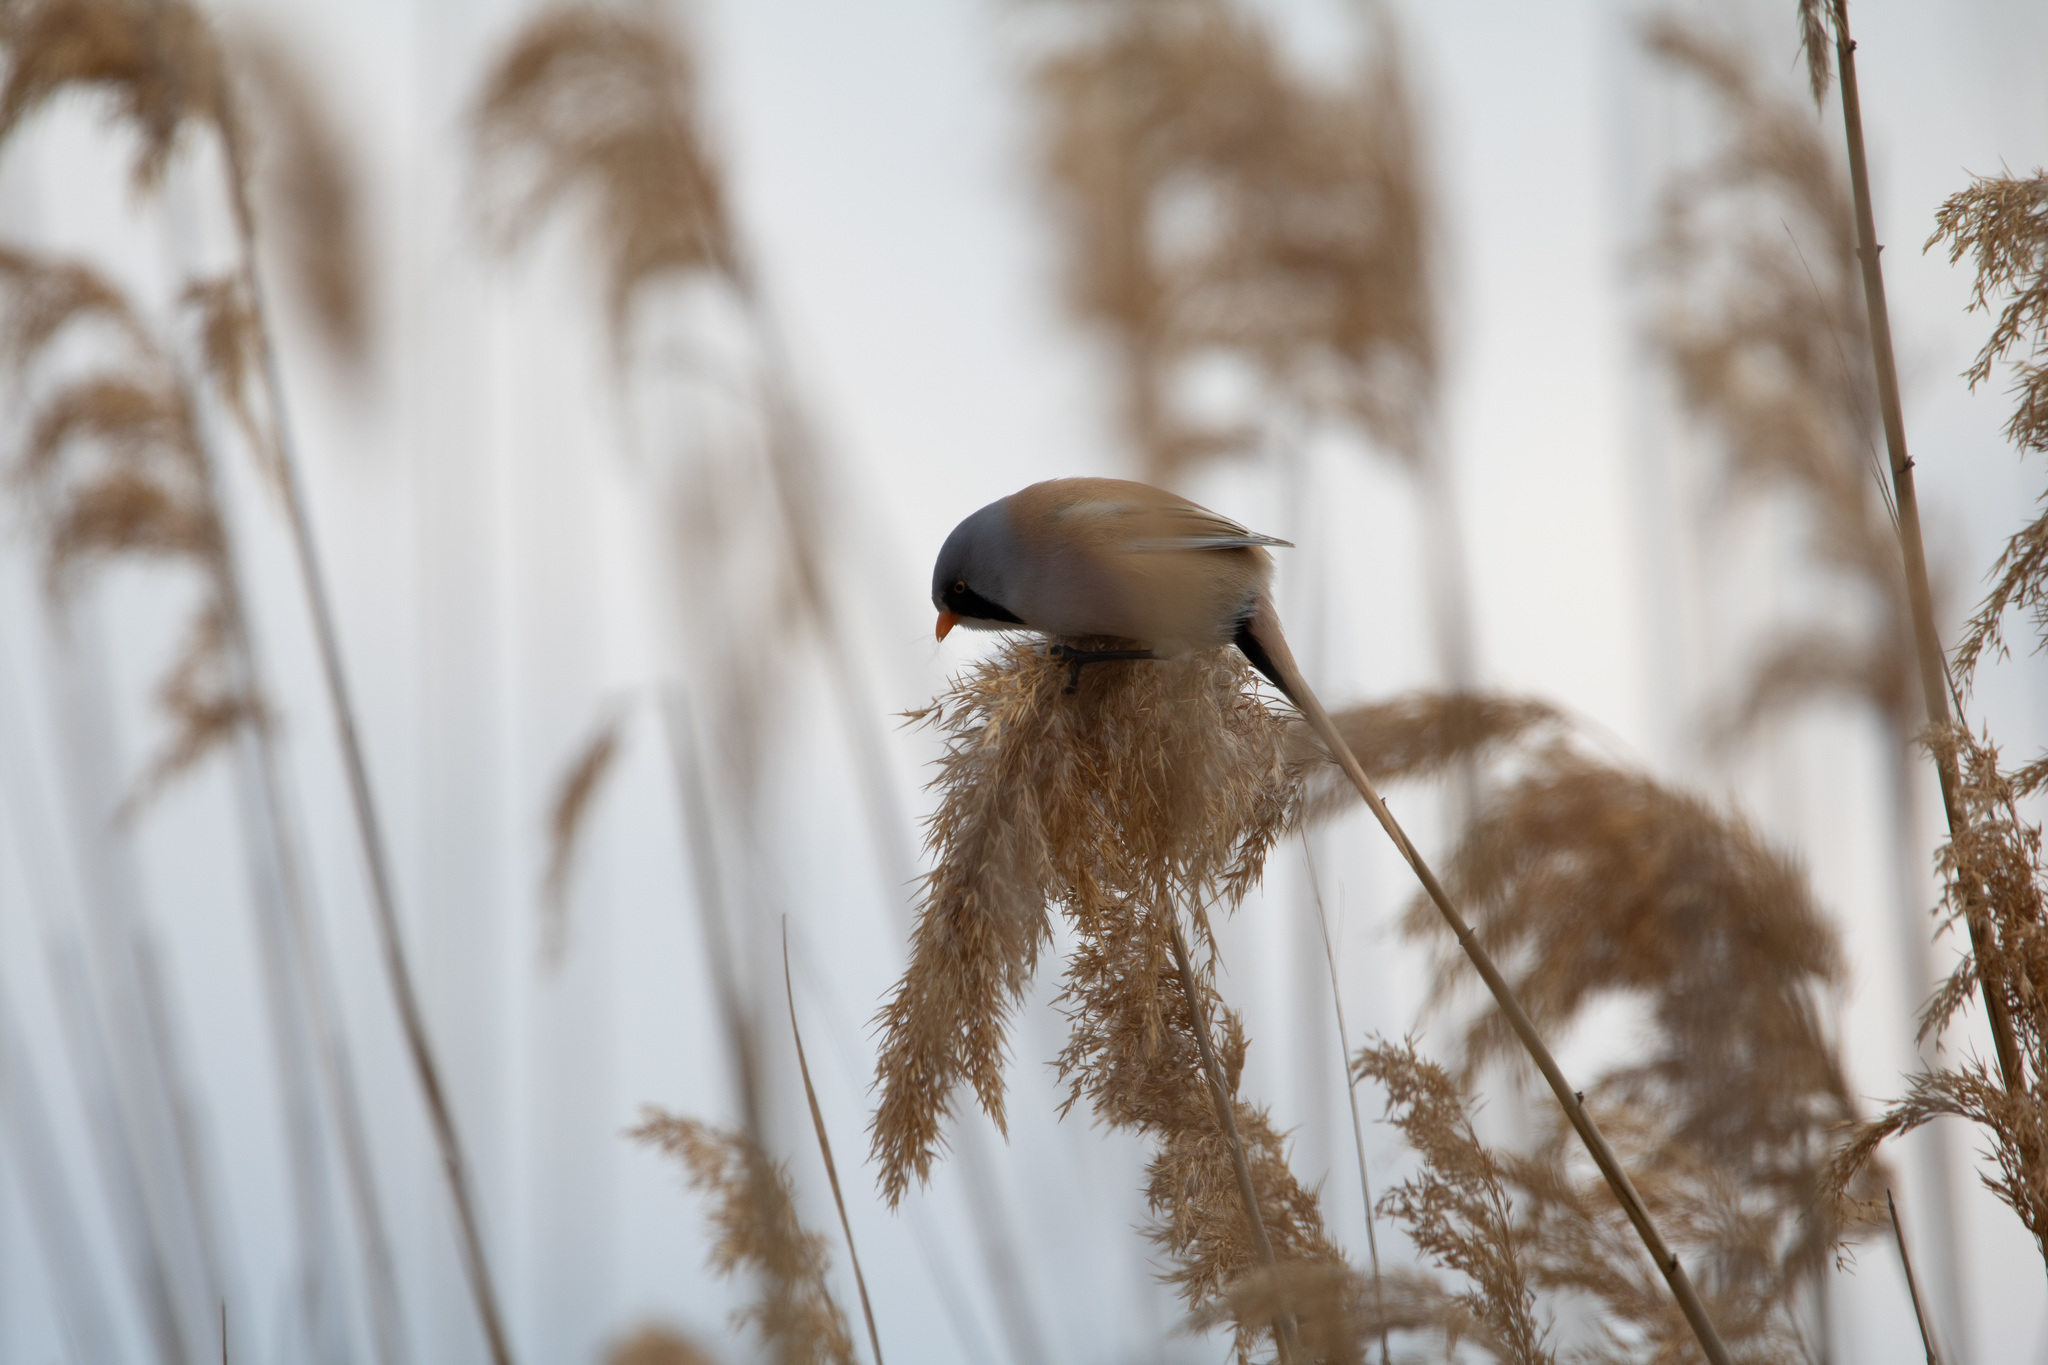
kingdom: Animalia
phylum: Chordata
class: Aves
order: Passeriformes
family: Panuridae
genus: Panurus
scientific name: Panurus biarmicus
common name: Bearded reedling
